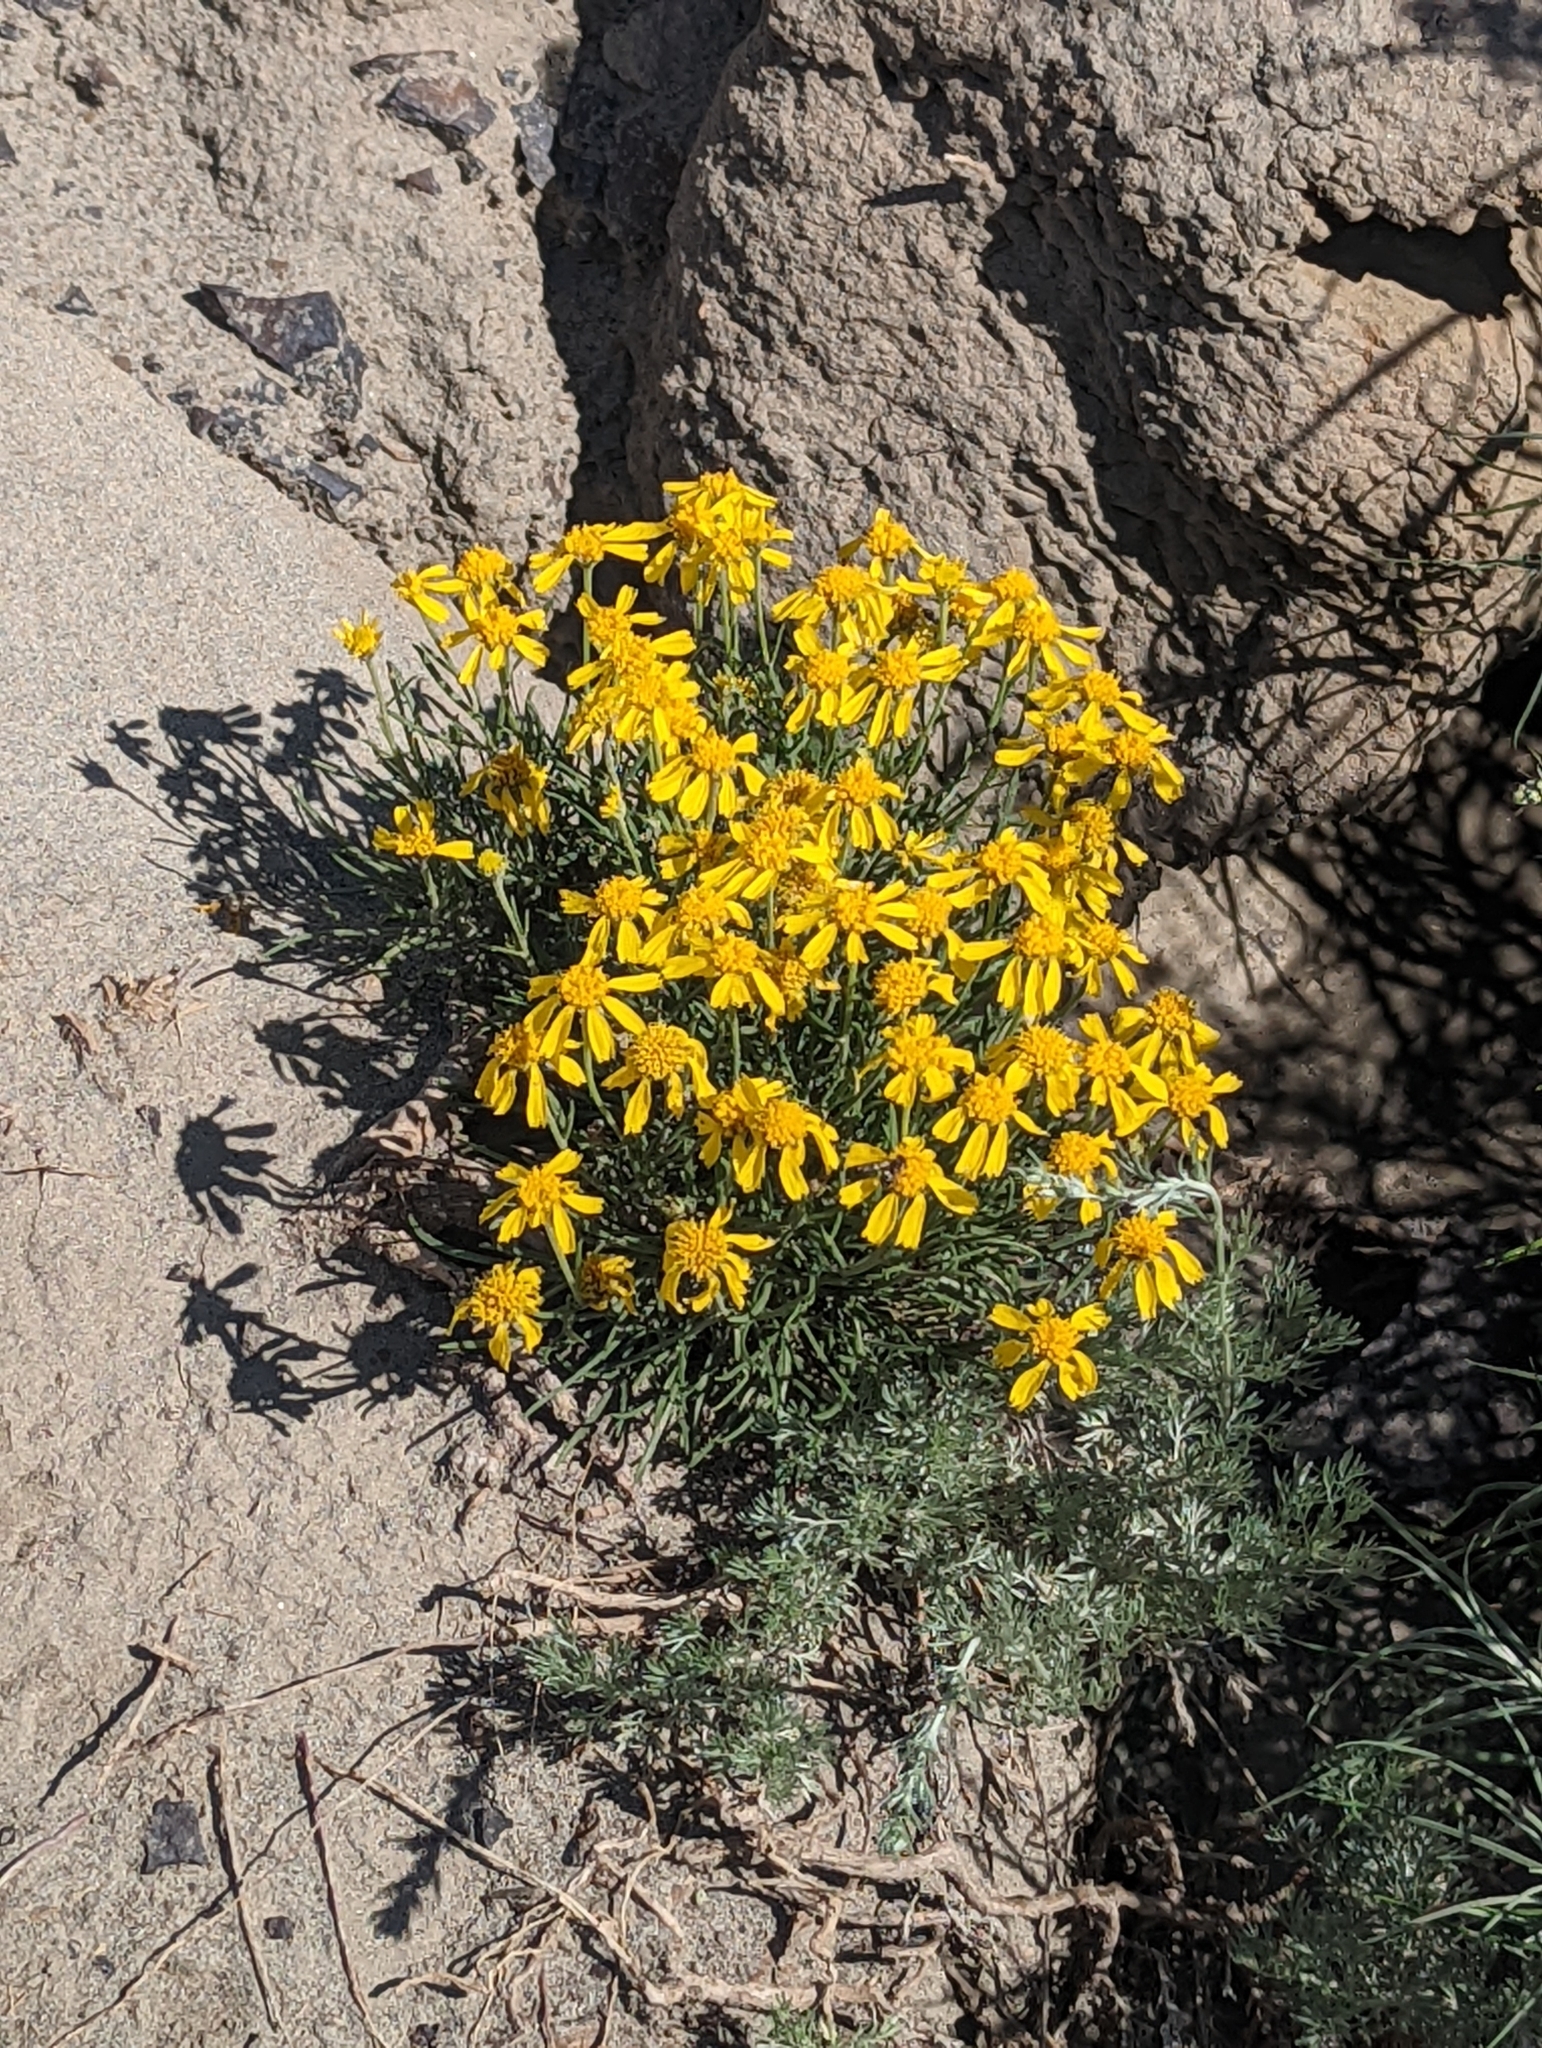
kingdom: Plantae
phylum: Tracheophyta
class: Magnoliopsida
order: Asterales
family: Asteraceae
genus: Hymenoxys
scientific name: Hymenoxys richardsonii
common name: Pingue rubberweed
